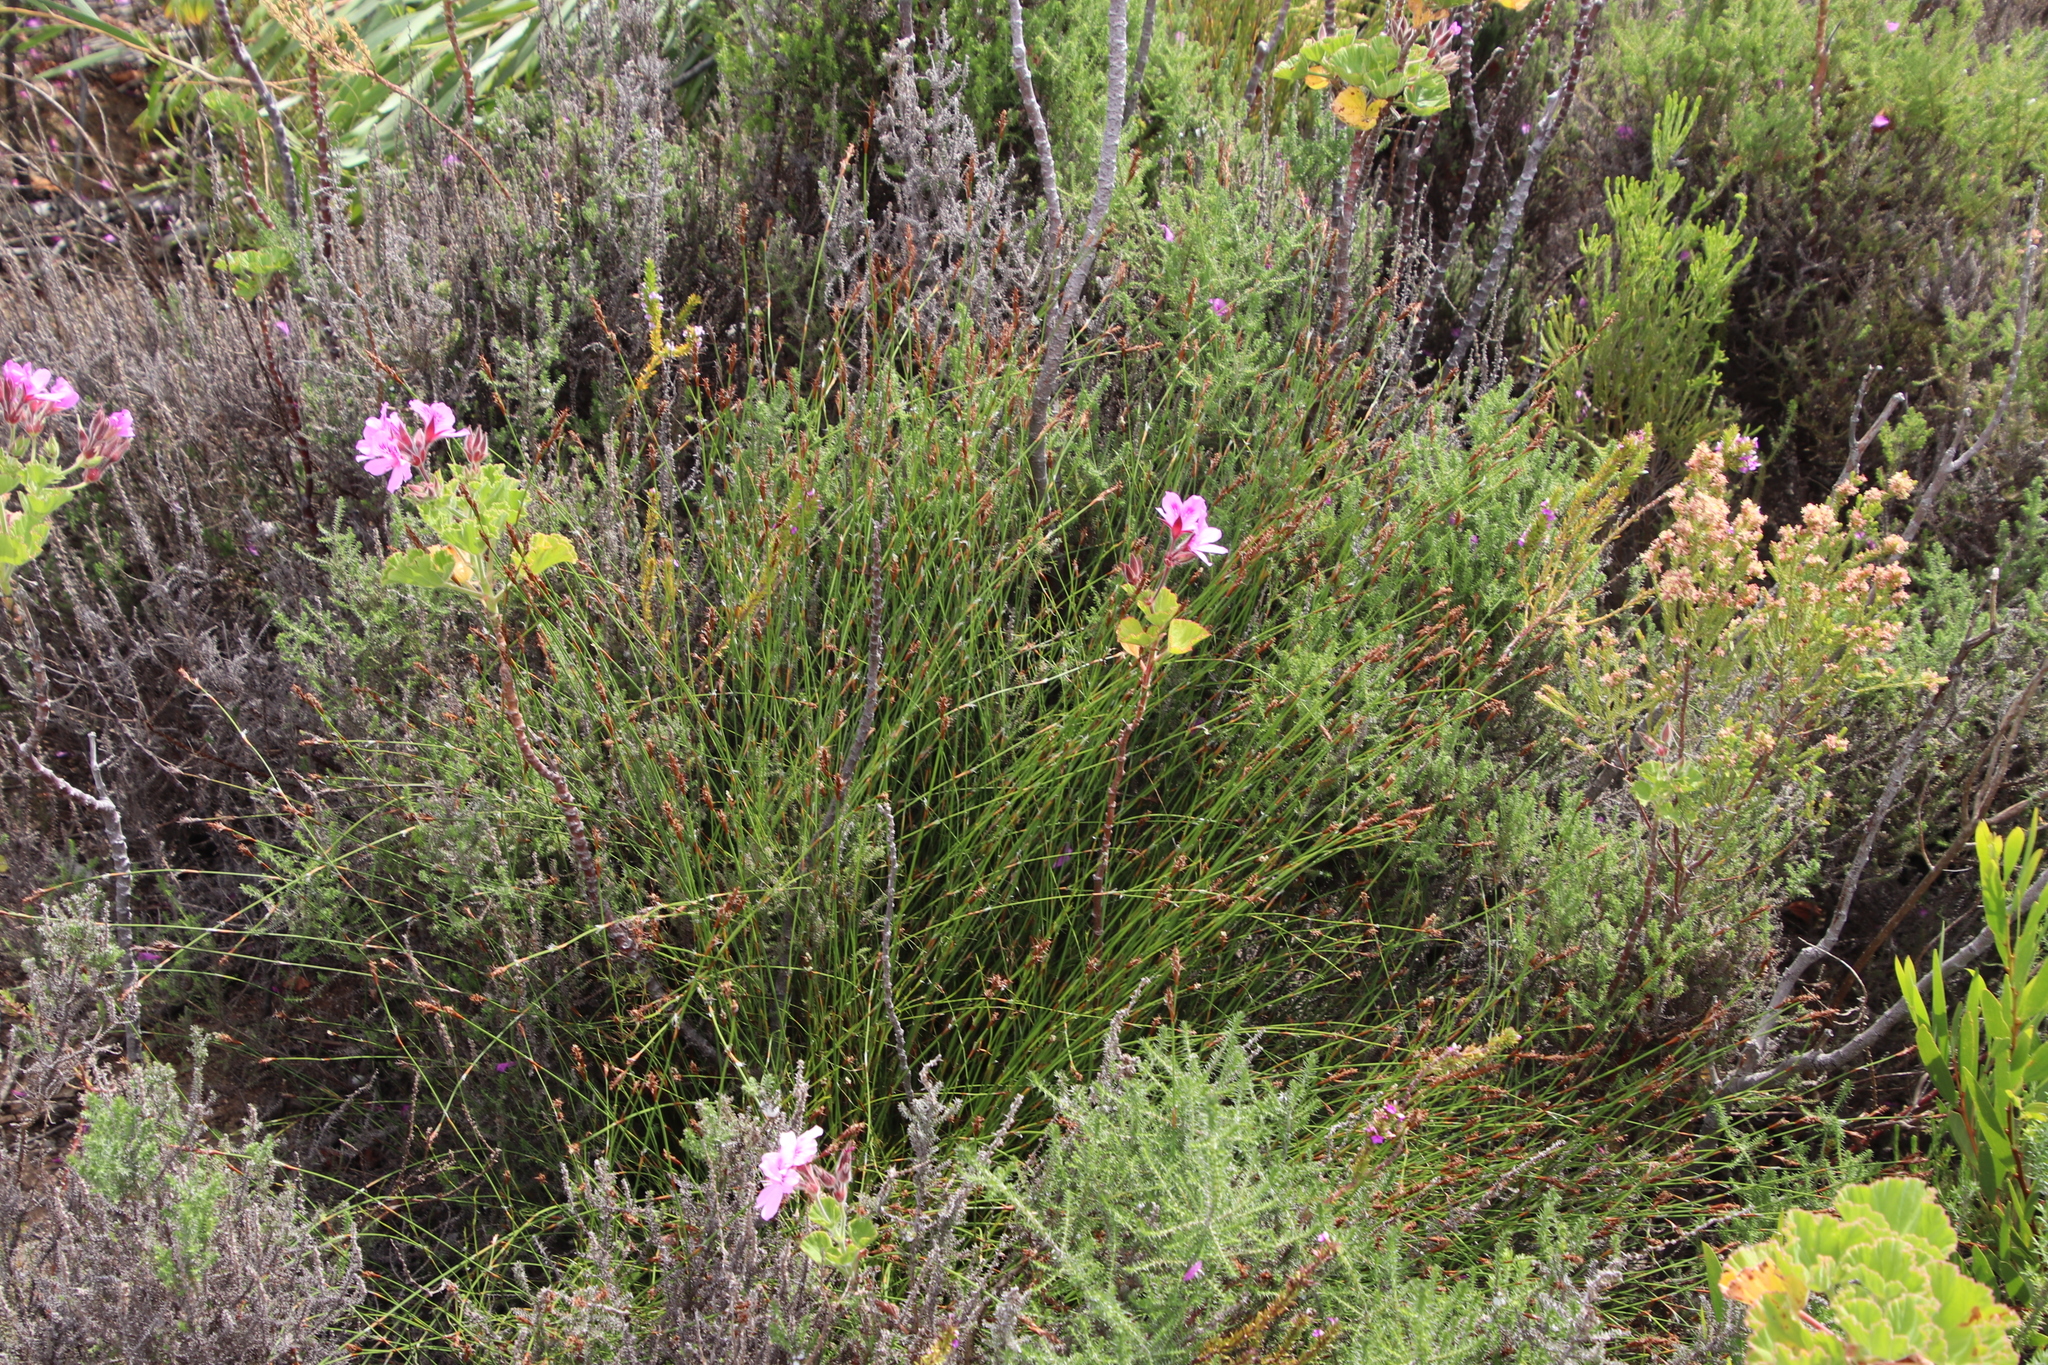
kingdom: Plantae
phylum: Tracheophyta
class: Liliopsida
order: Poales
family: Restionaceae
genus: Restio
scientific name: Restio capensis
